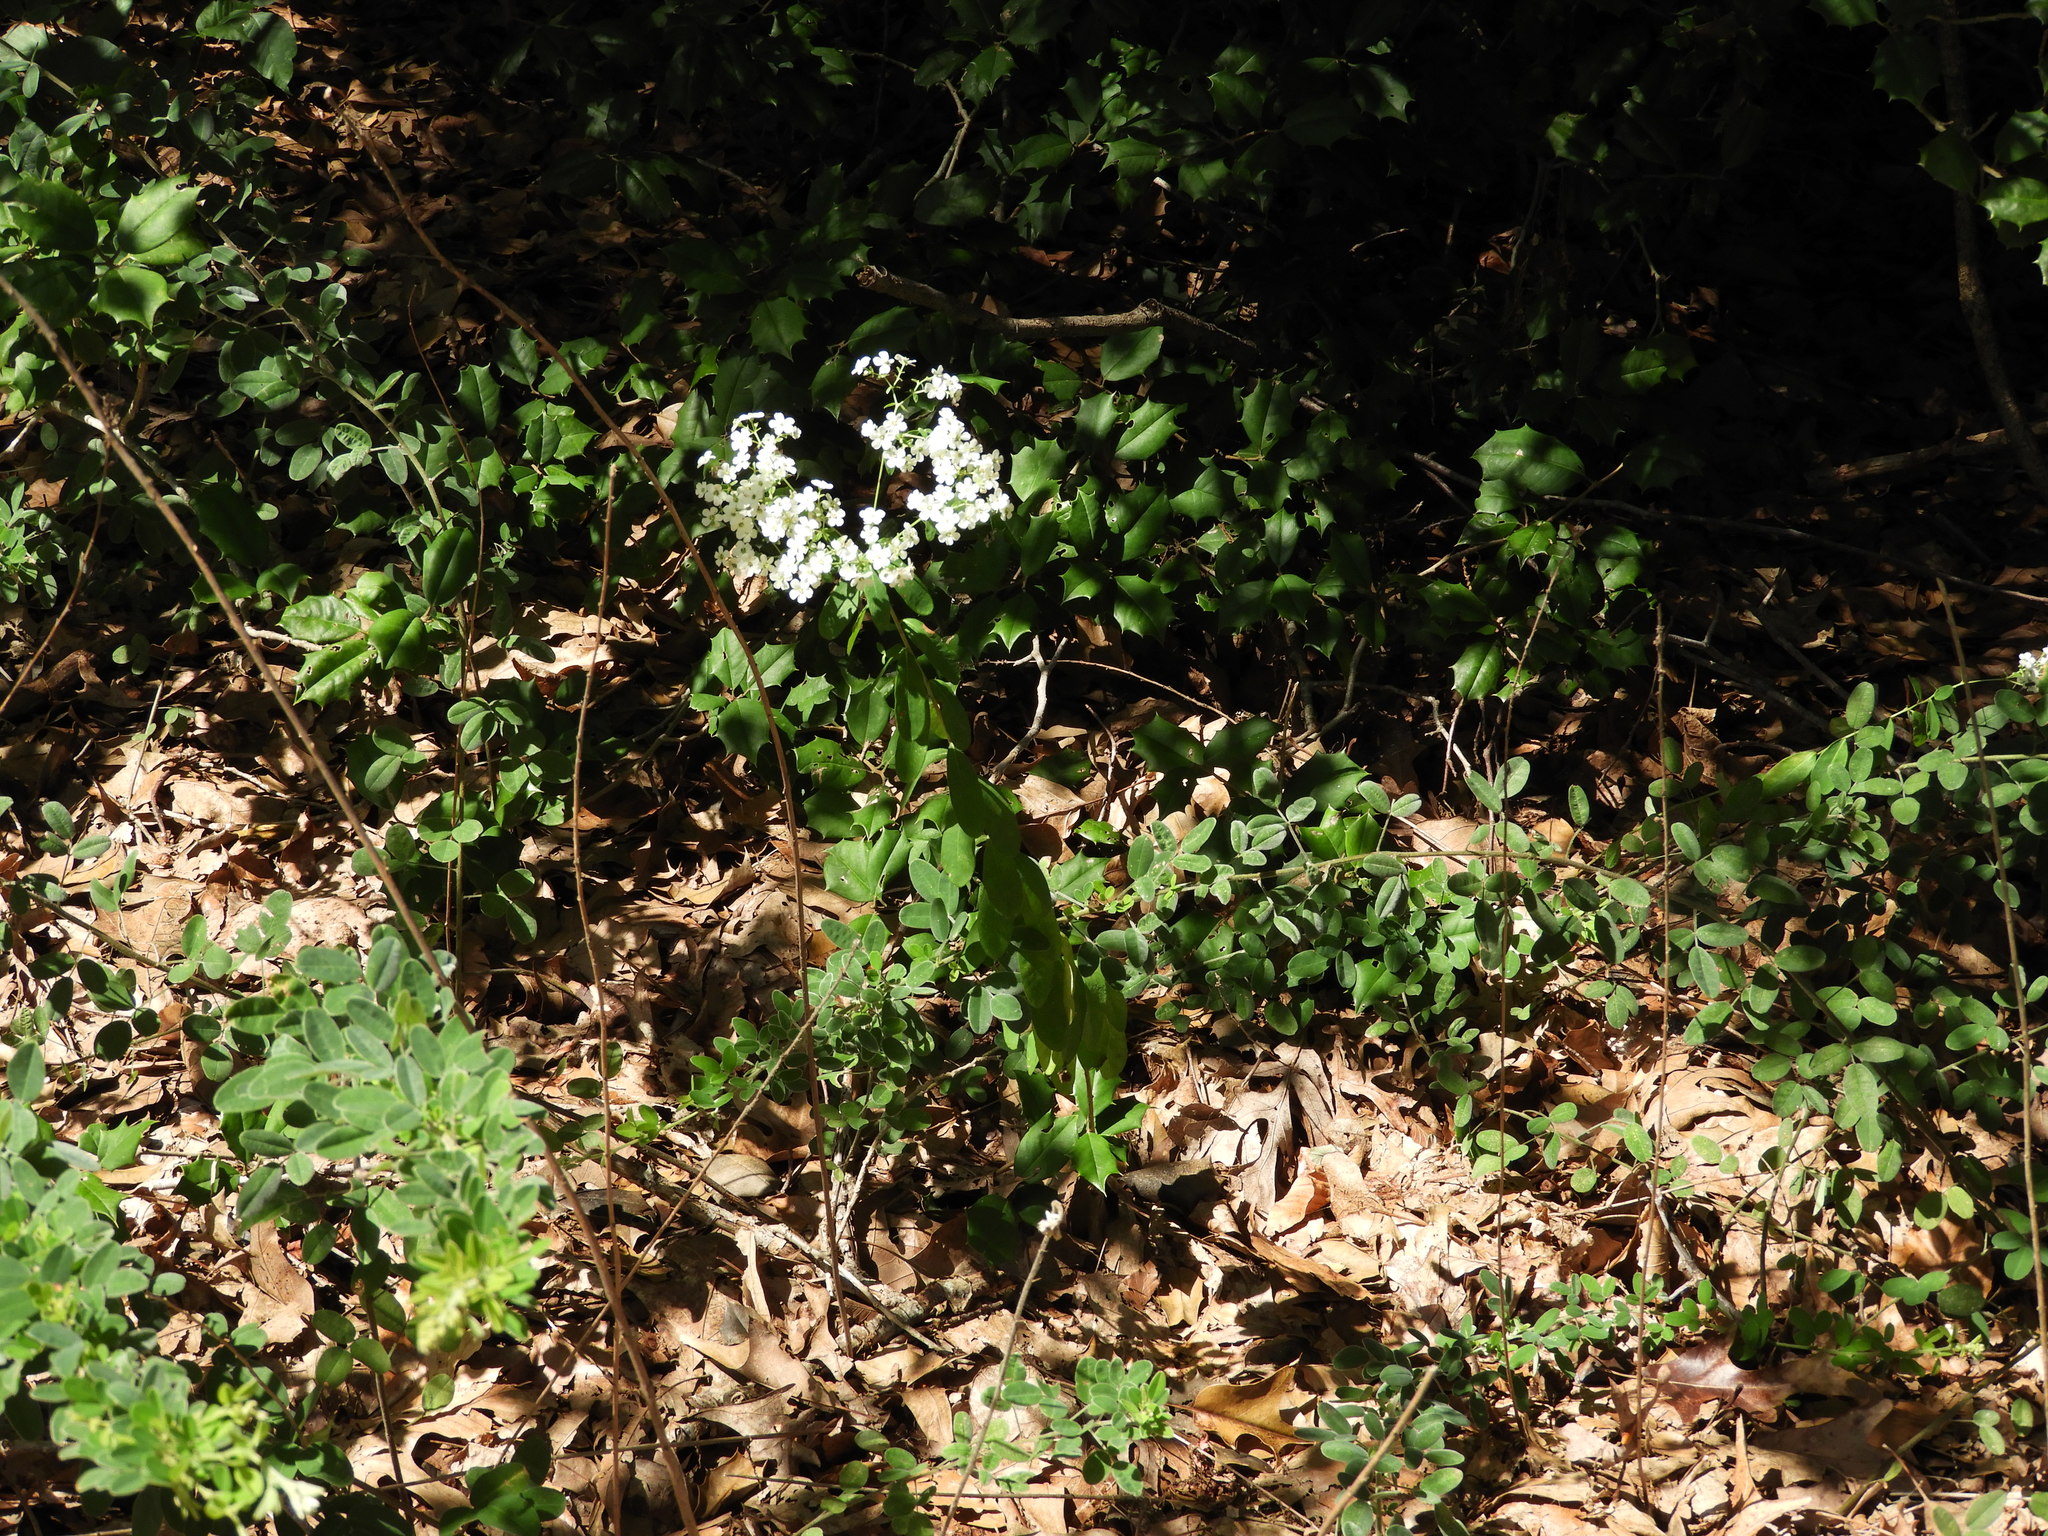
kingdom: Plantae
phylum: Tracheophyta
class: Magnoliopsida
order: Malpighiales
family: Euphorbiaceae
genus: Euphorbia
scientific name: Euphorbia corollata
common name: Flowering spurge
